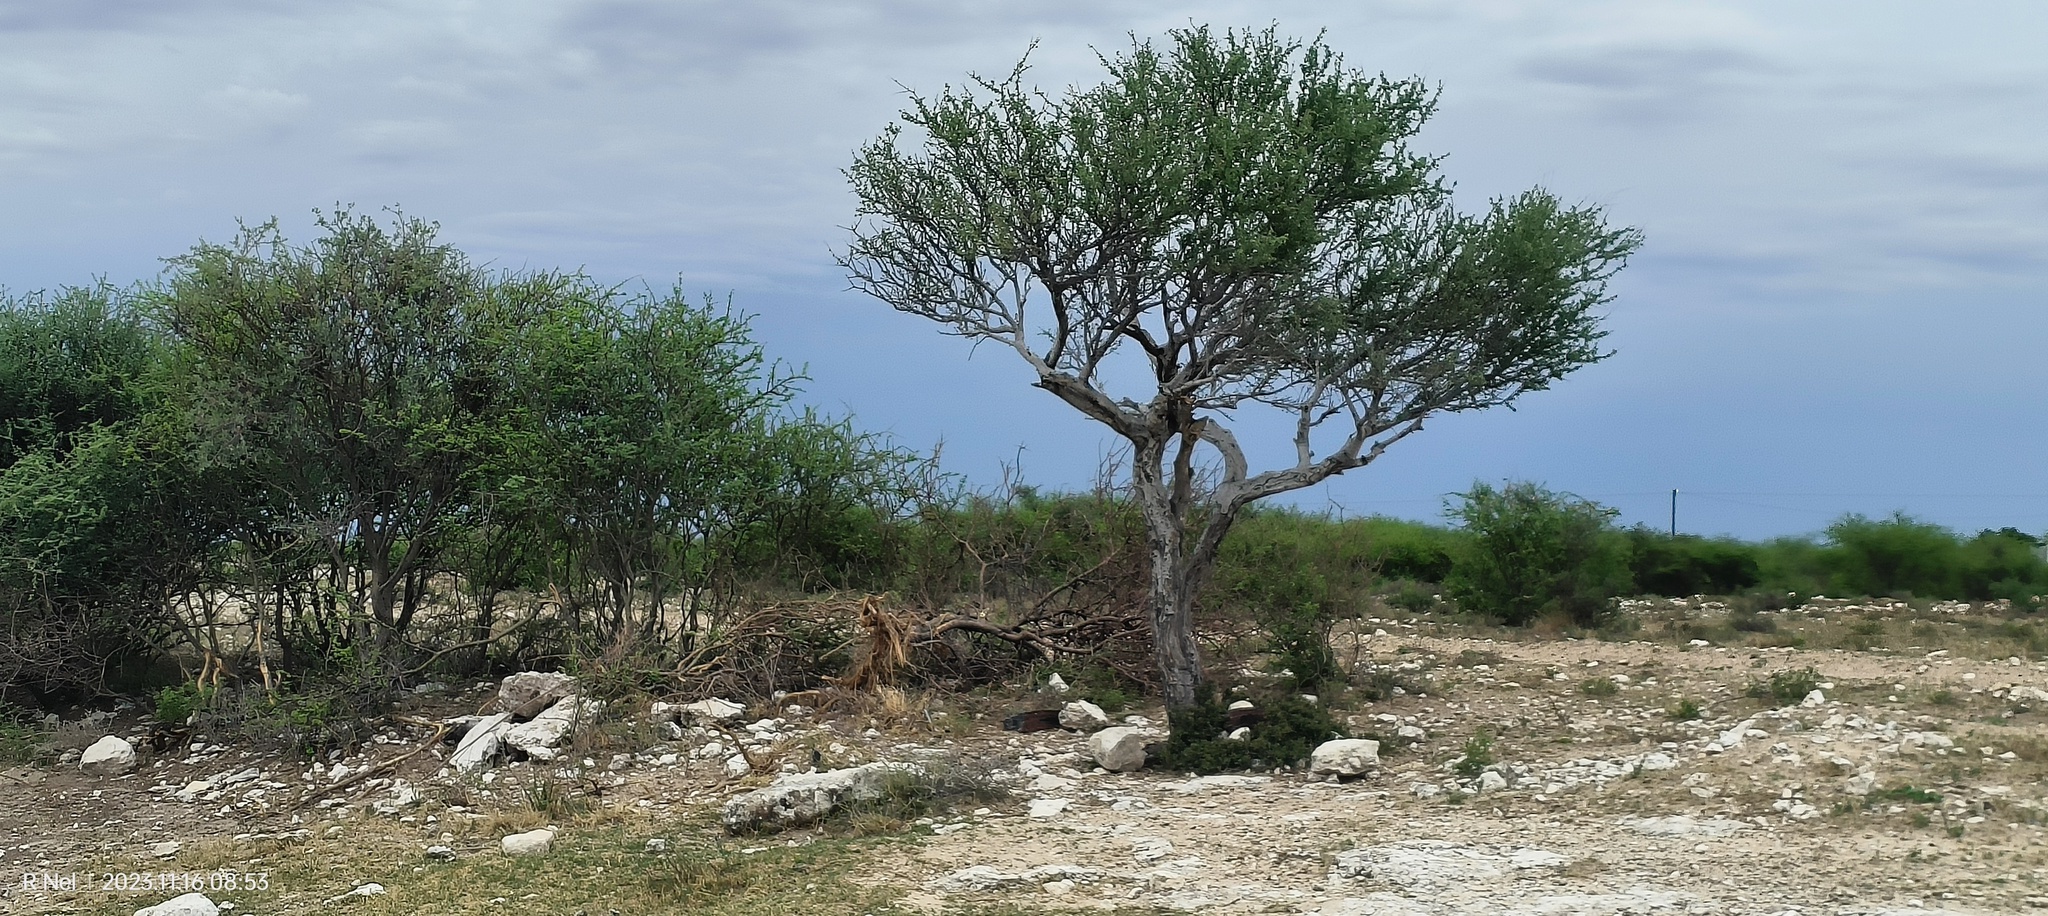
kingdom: Plantae
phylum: Tracheophyta
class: Magnoliopsida
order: Brassicales
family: Capparaceae
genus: Boscia
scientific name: Boscia albitrunca
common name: Caper bush
